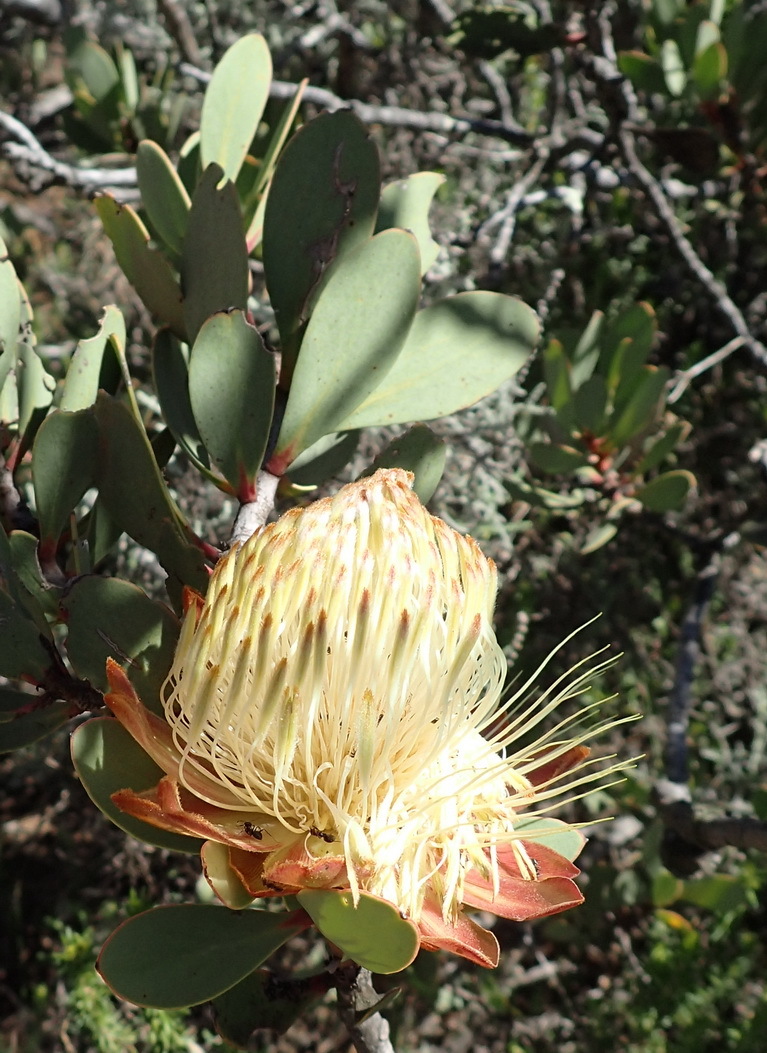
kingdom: Plantae
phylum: Tracheophyta
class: Magnoliopsida
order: Proteales
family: Proteaceae
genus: Protea
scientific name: Protea glabra
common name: Chestnut sugarbush
